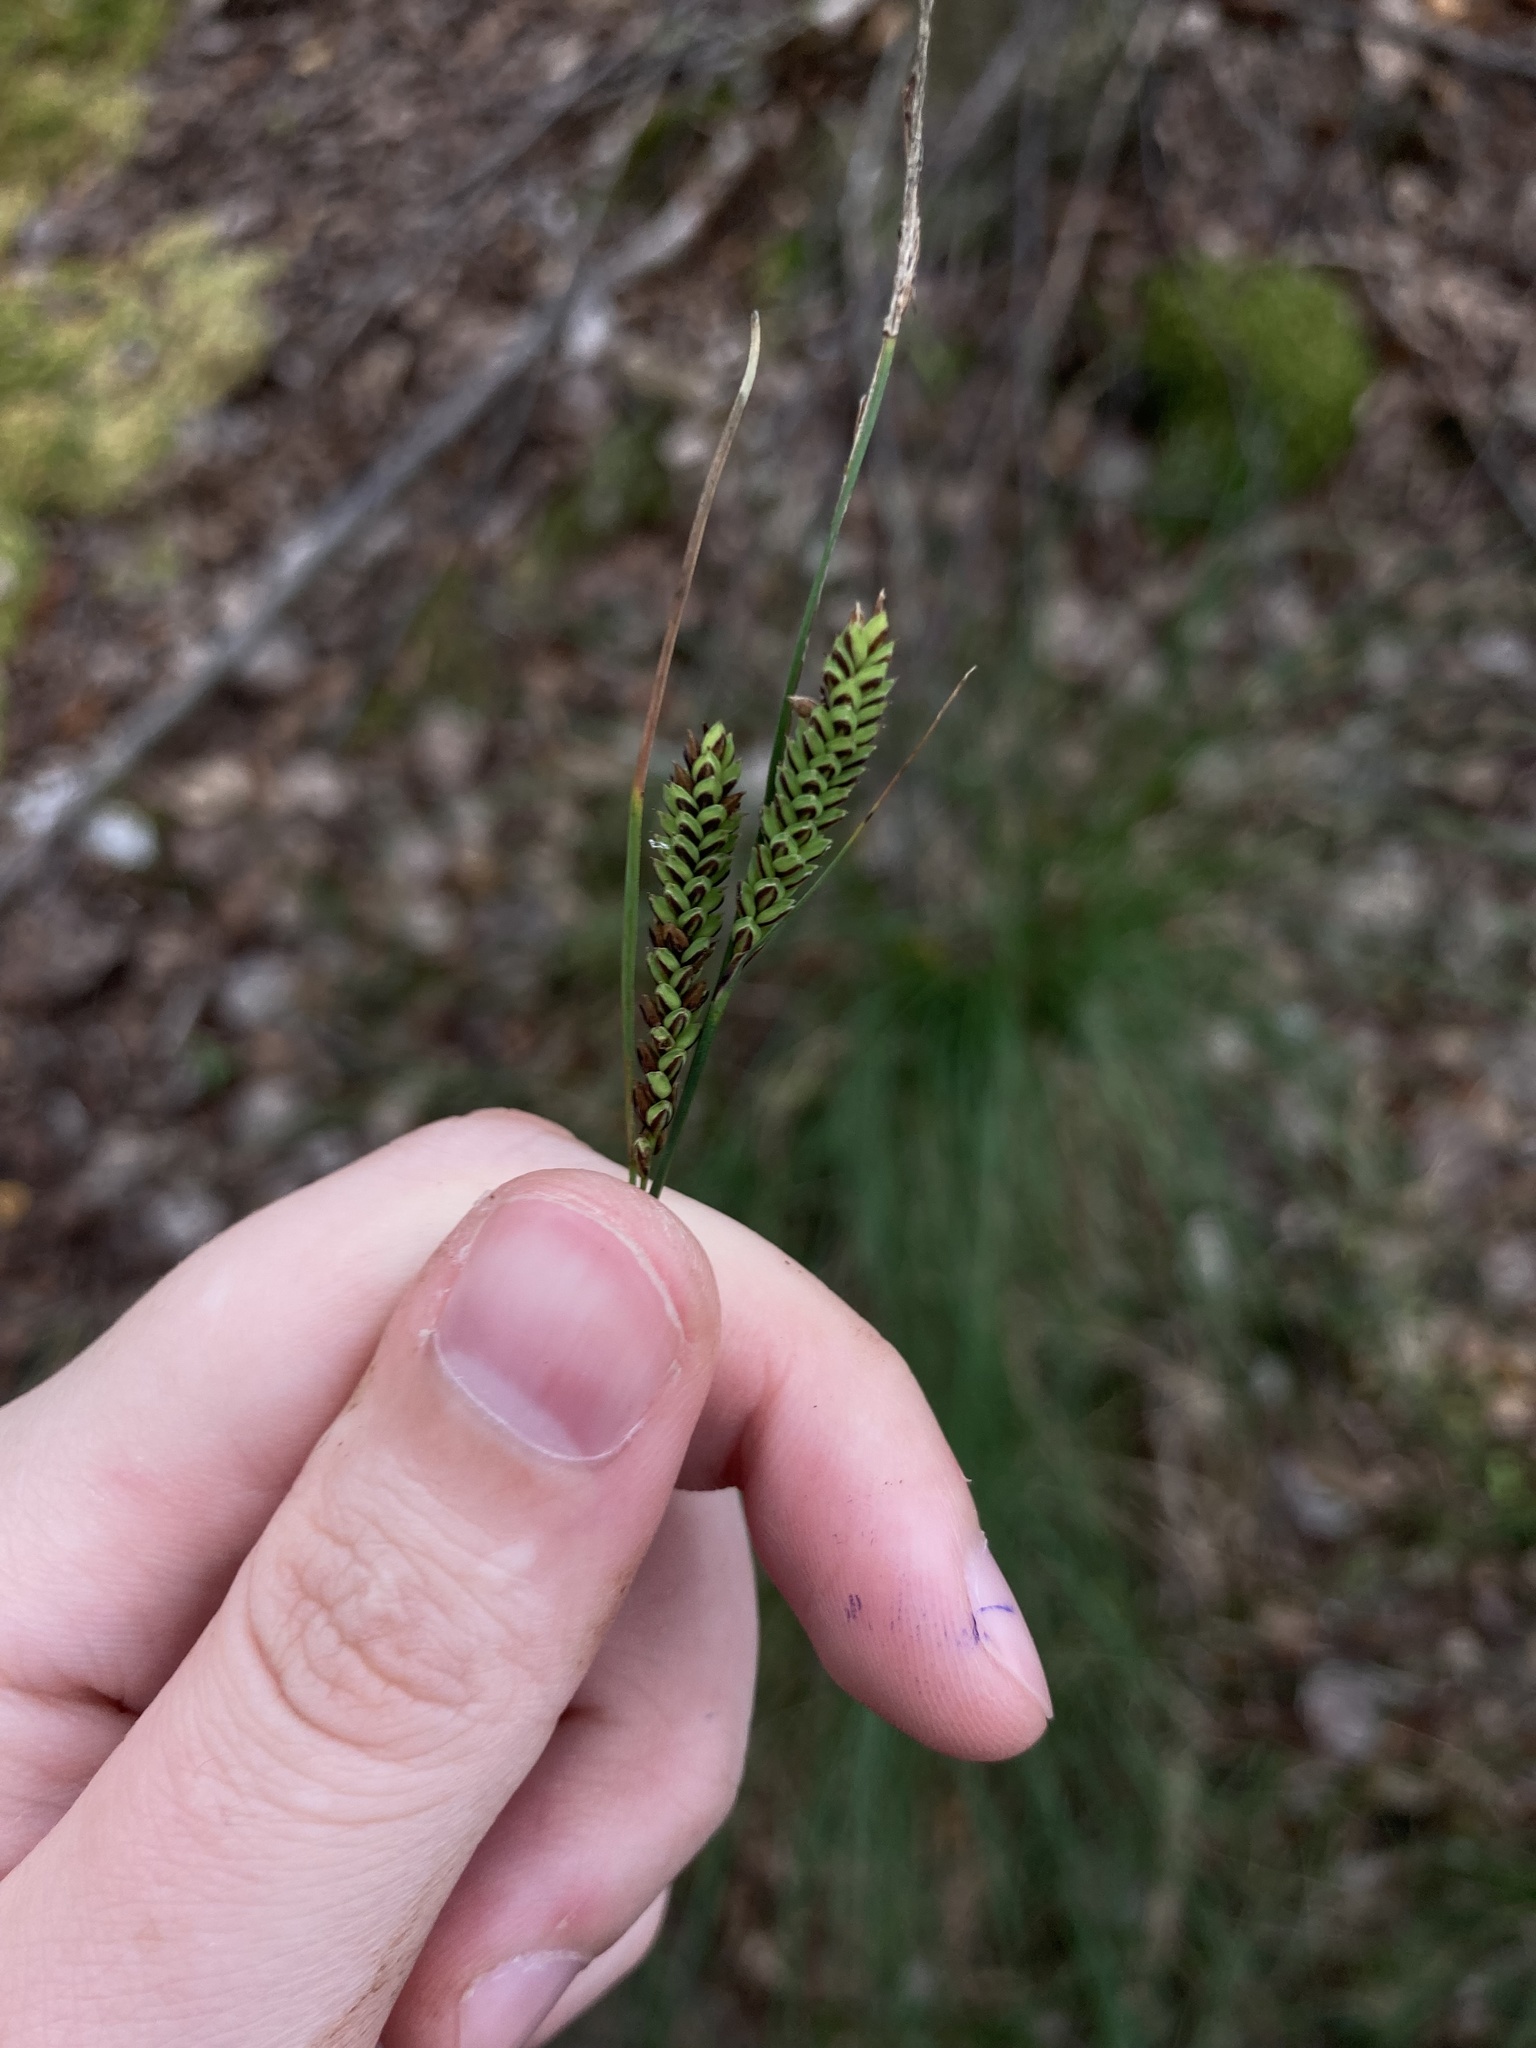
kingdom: Plantae
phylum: Tracheophyta
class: Liliopsida
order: Poales
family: Cyperaceae
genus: Carex
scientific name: Carex nigra
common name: Common sedge
